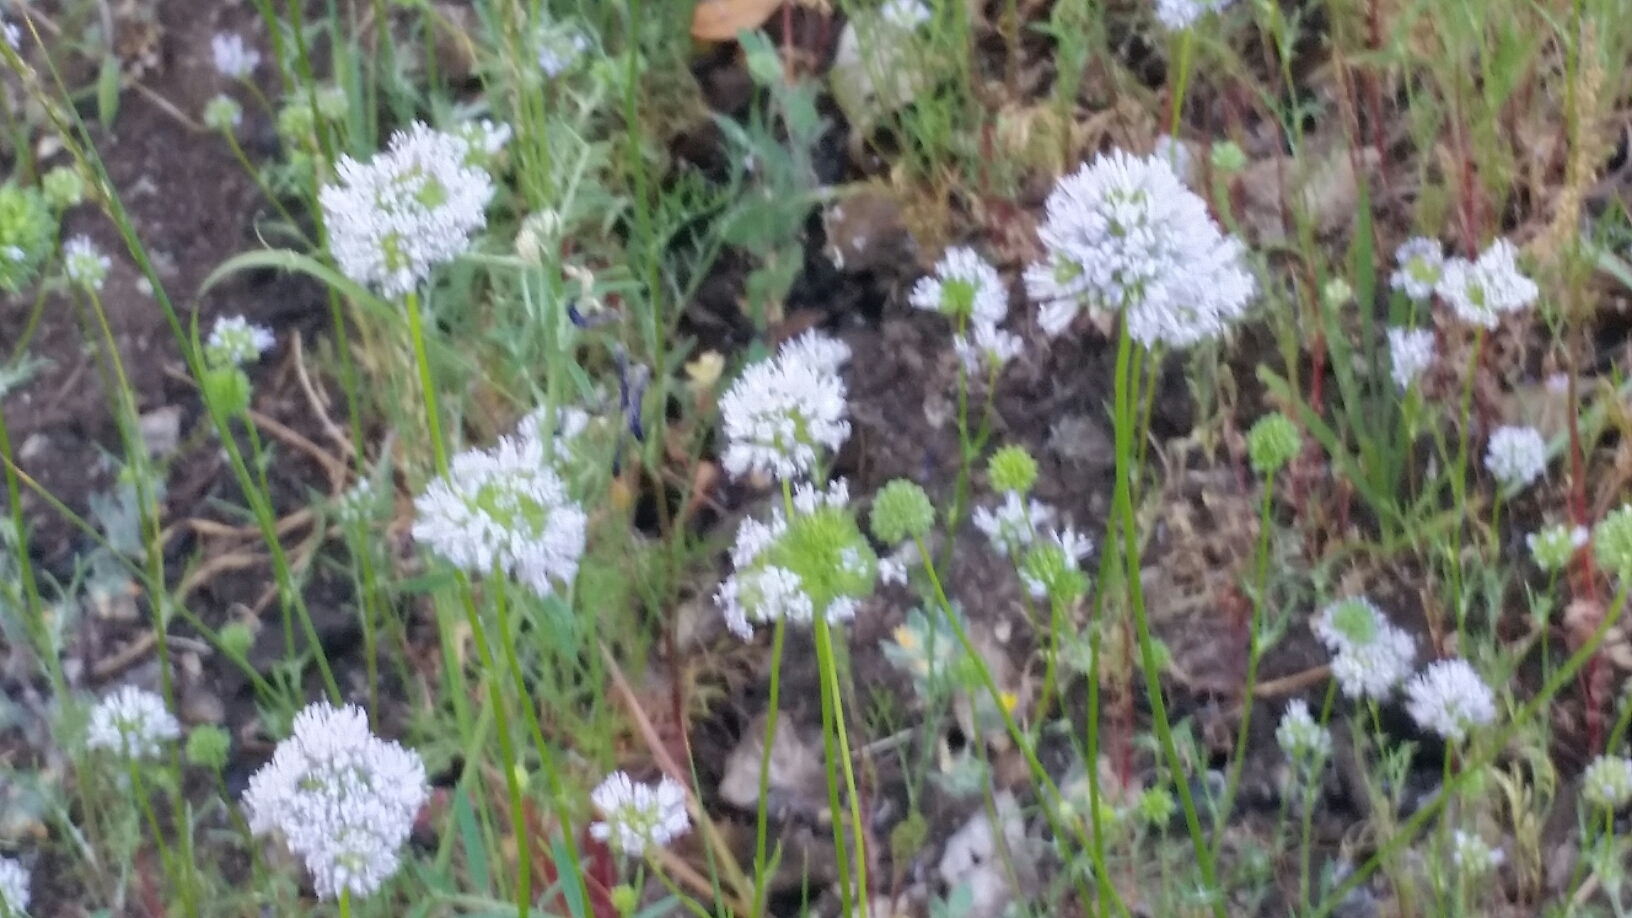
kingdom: Plantae
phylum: Tracheophyta
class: Magnoliopsida
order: Ericales
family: Polemoniaceae
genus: Gilia
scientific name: Gilia capitata
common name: Bluehead gilia
